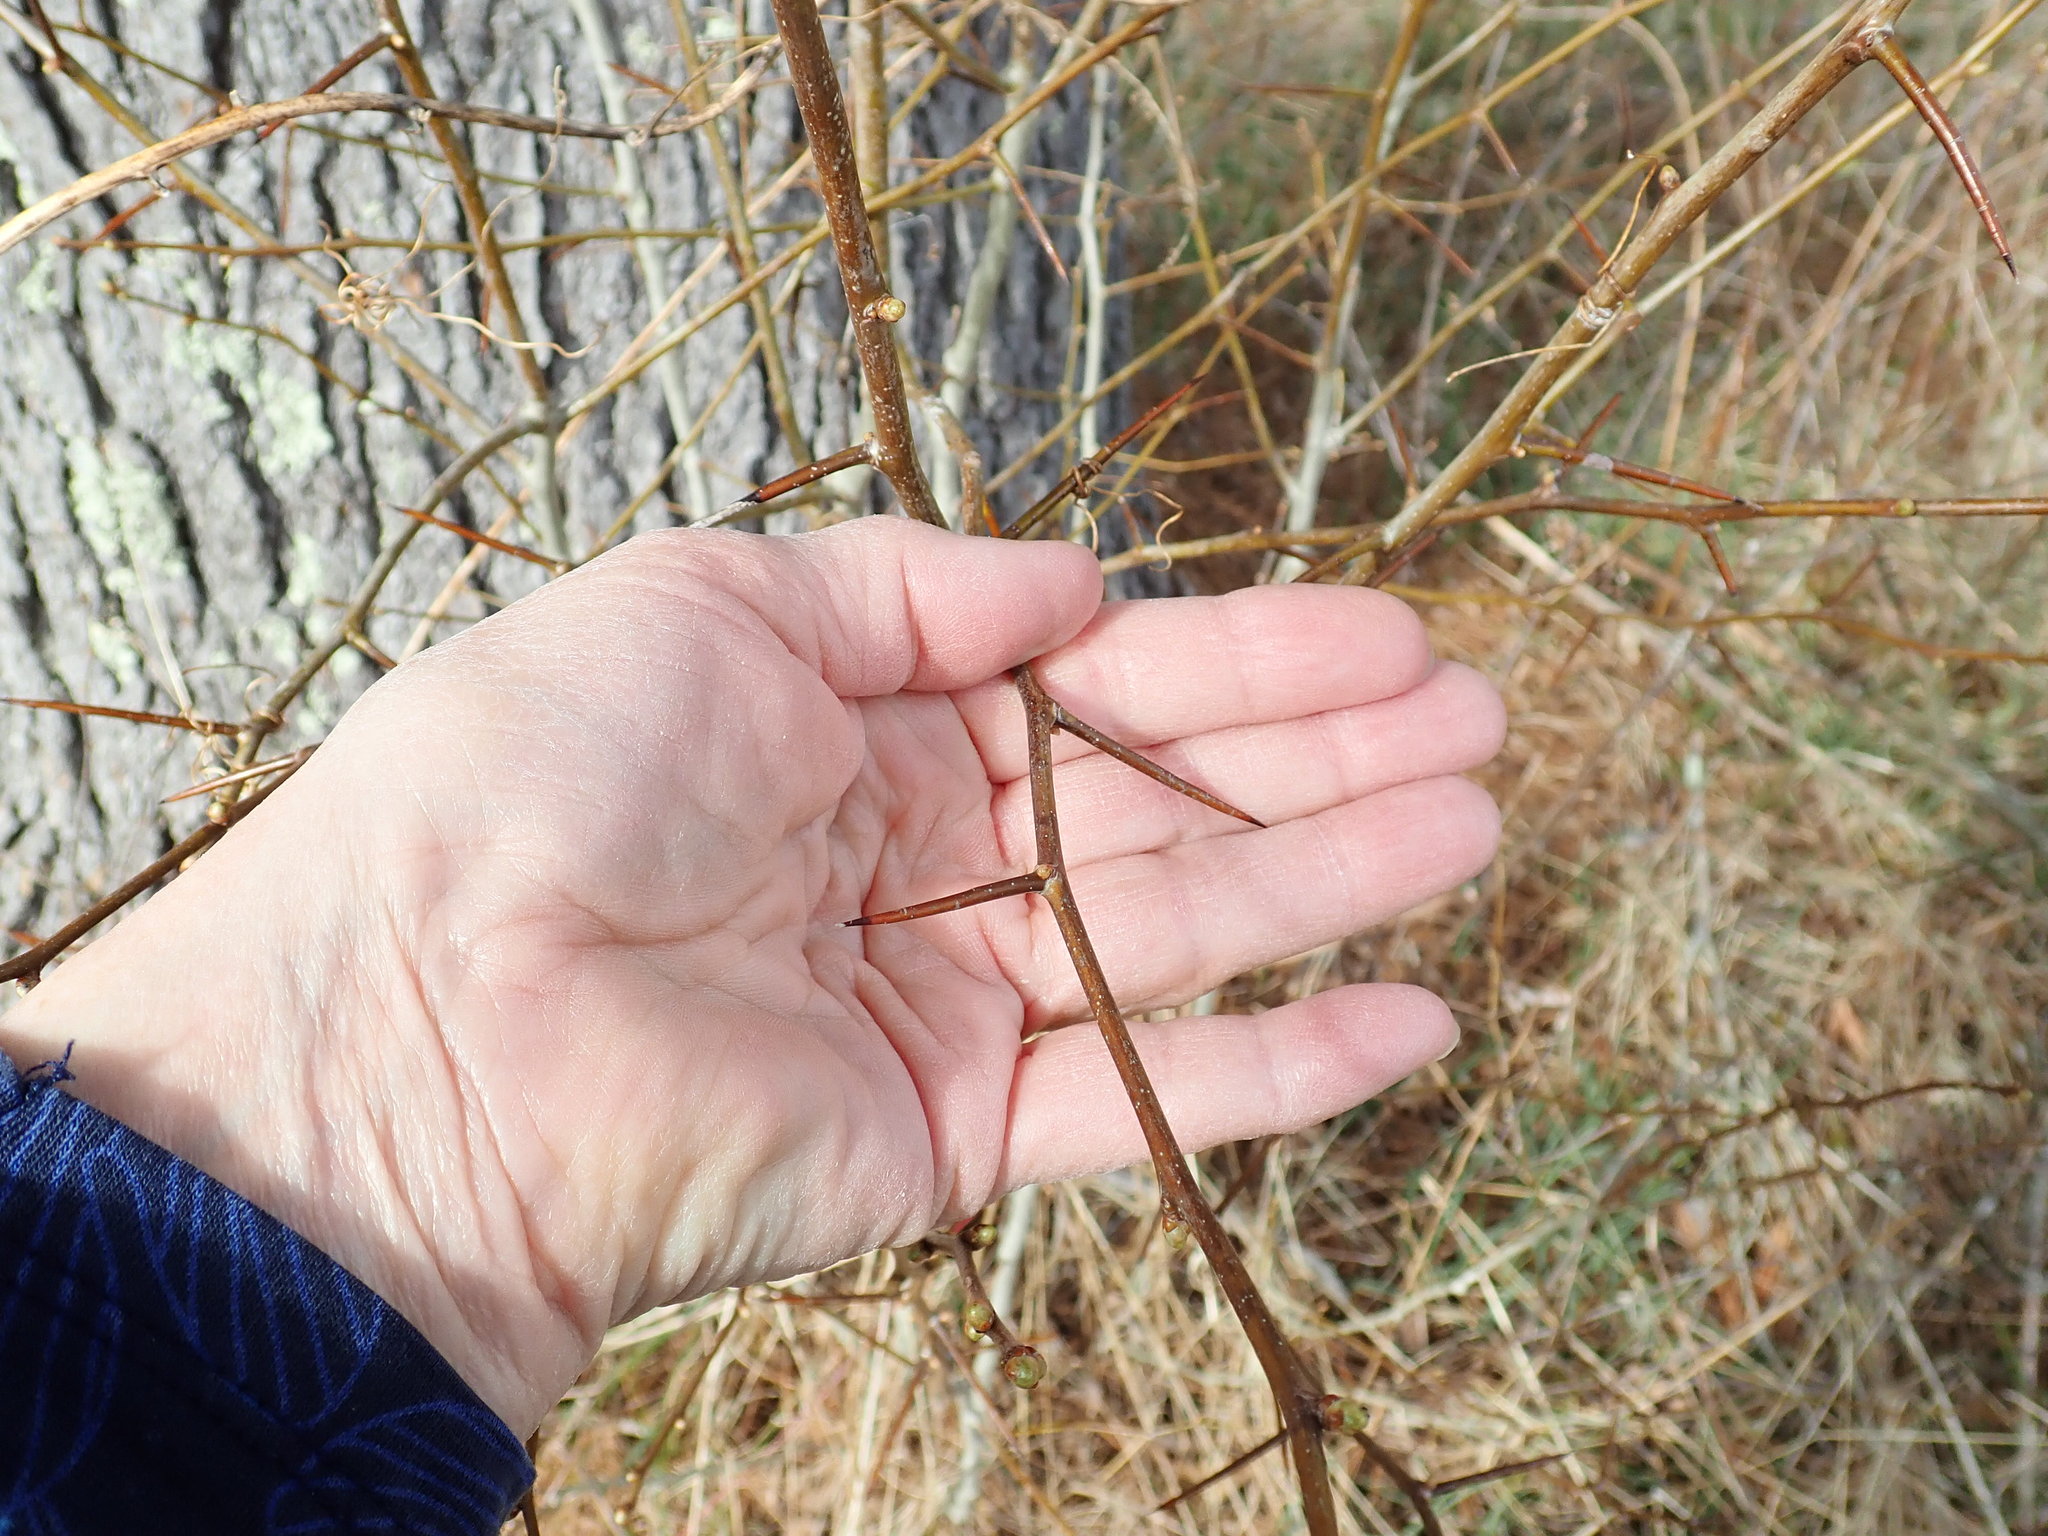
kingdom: Plantae
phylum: Tracheophyta
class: Magnoliopsida
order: Rosales
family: Rosaceae
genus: Crataegus
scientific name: Crataegus
